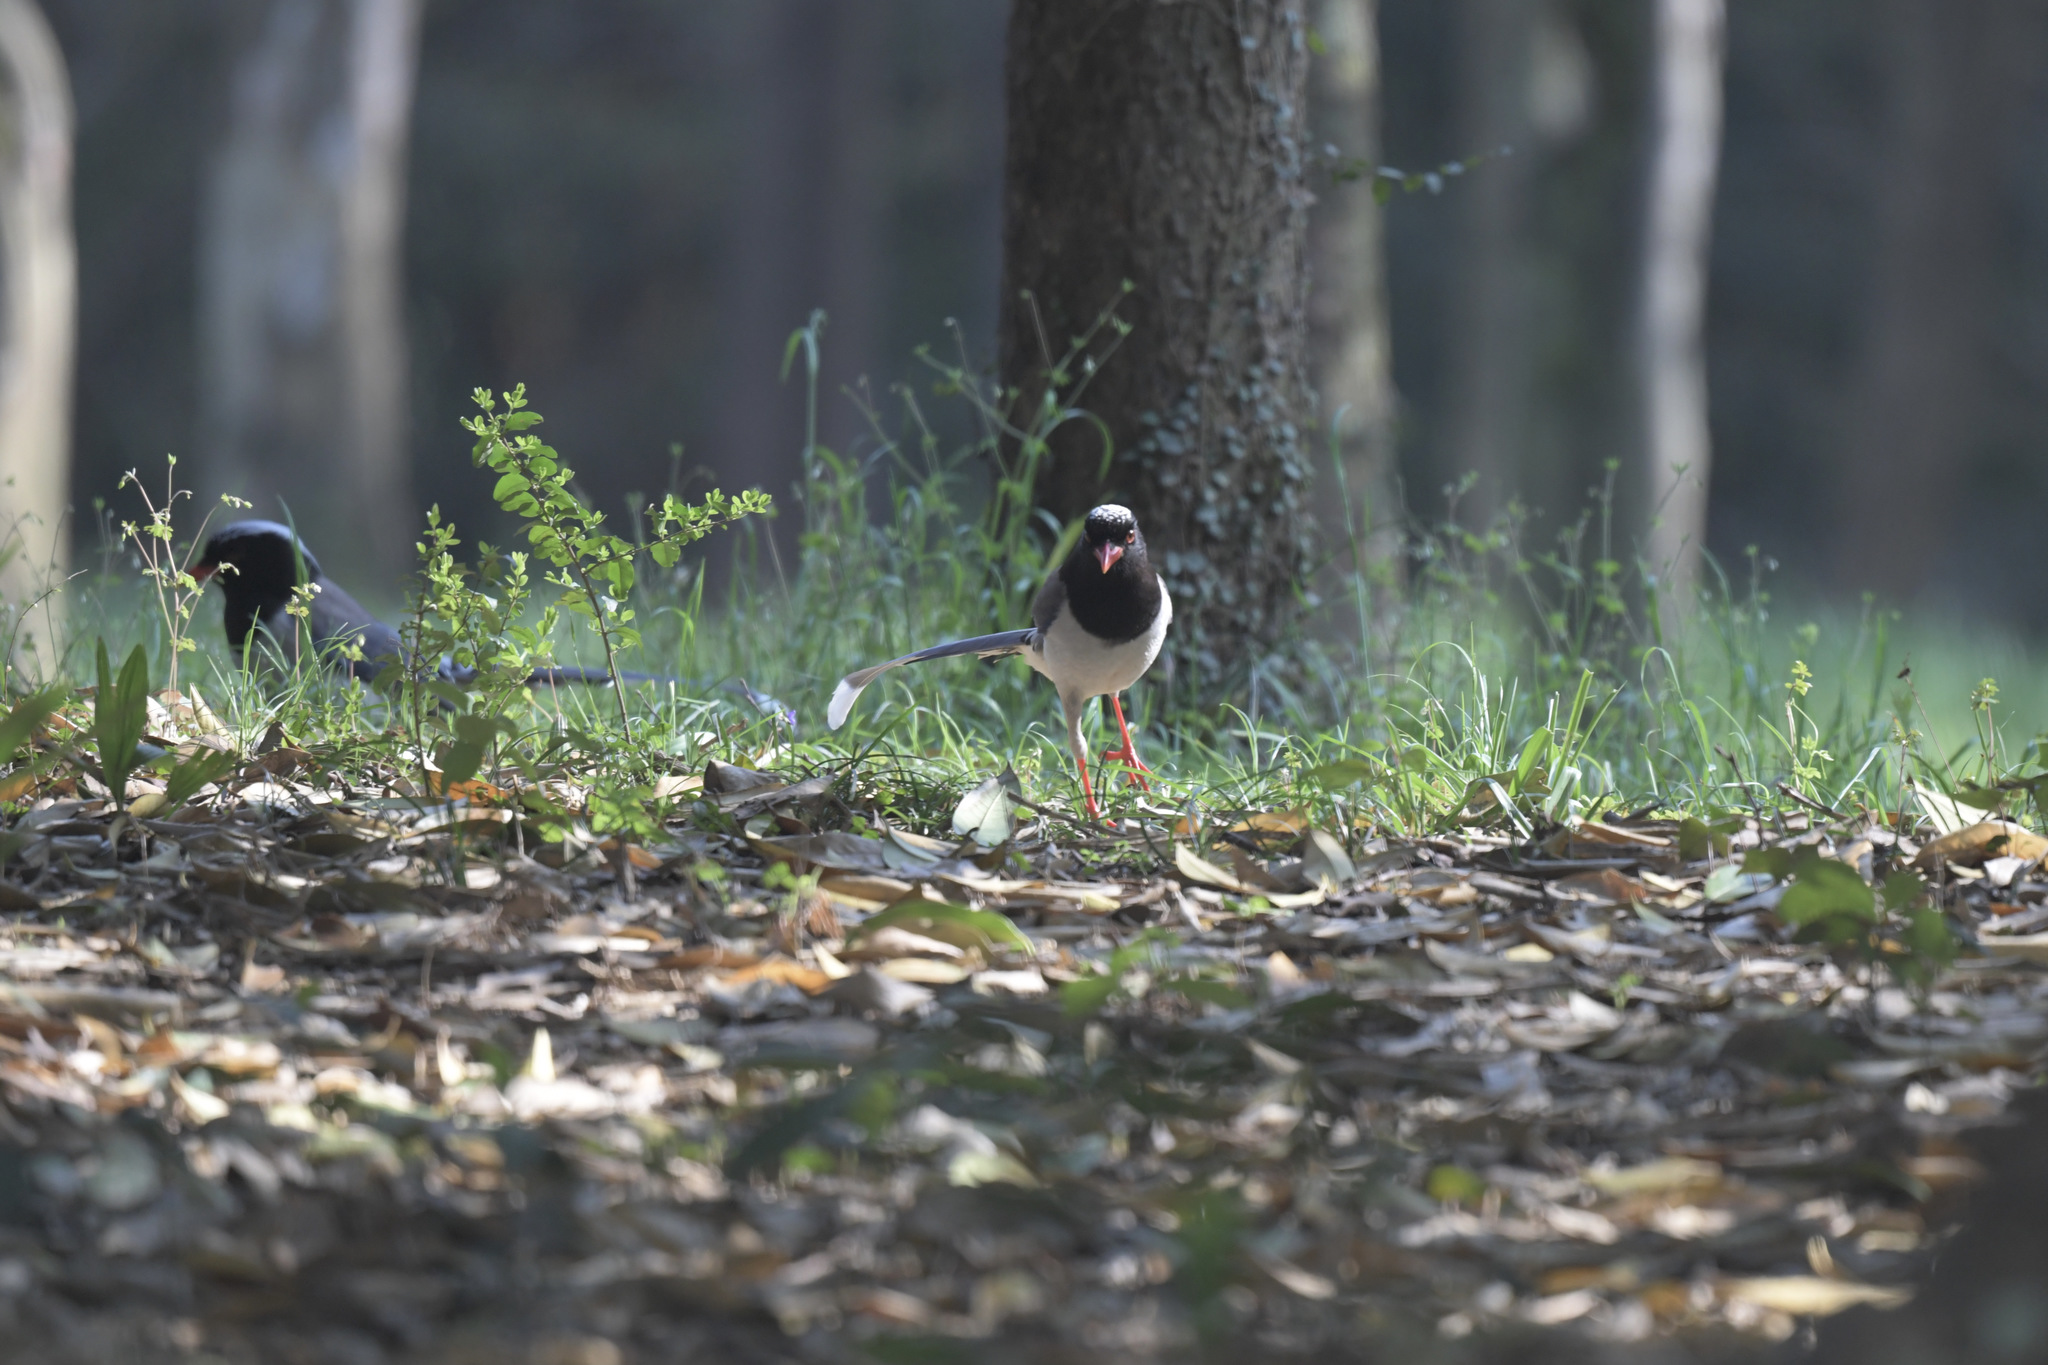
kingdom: Animalia
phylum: Chordata
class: Aves
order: Passeriformes
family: Corvidae
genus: Urocissa
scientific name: Urocissa erythroryncha
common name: Red-billed blue magpie
